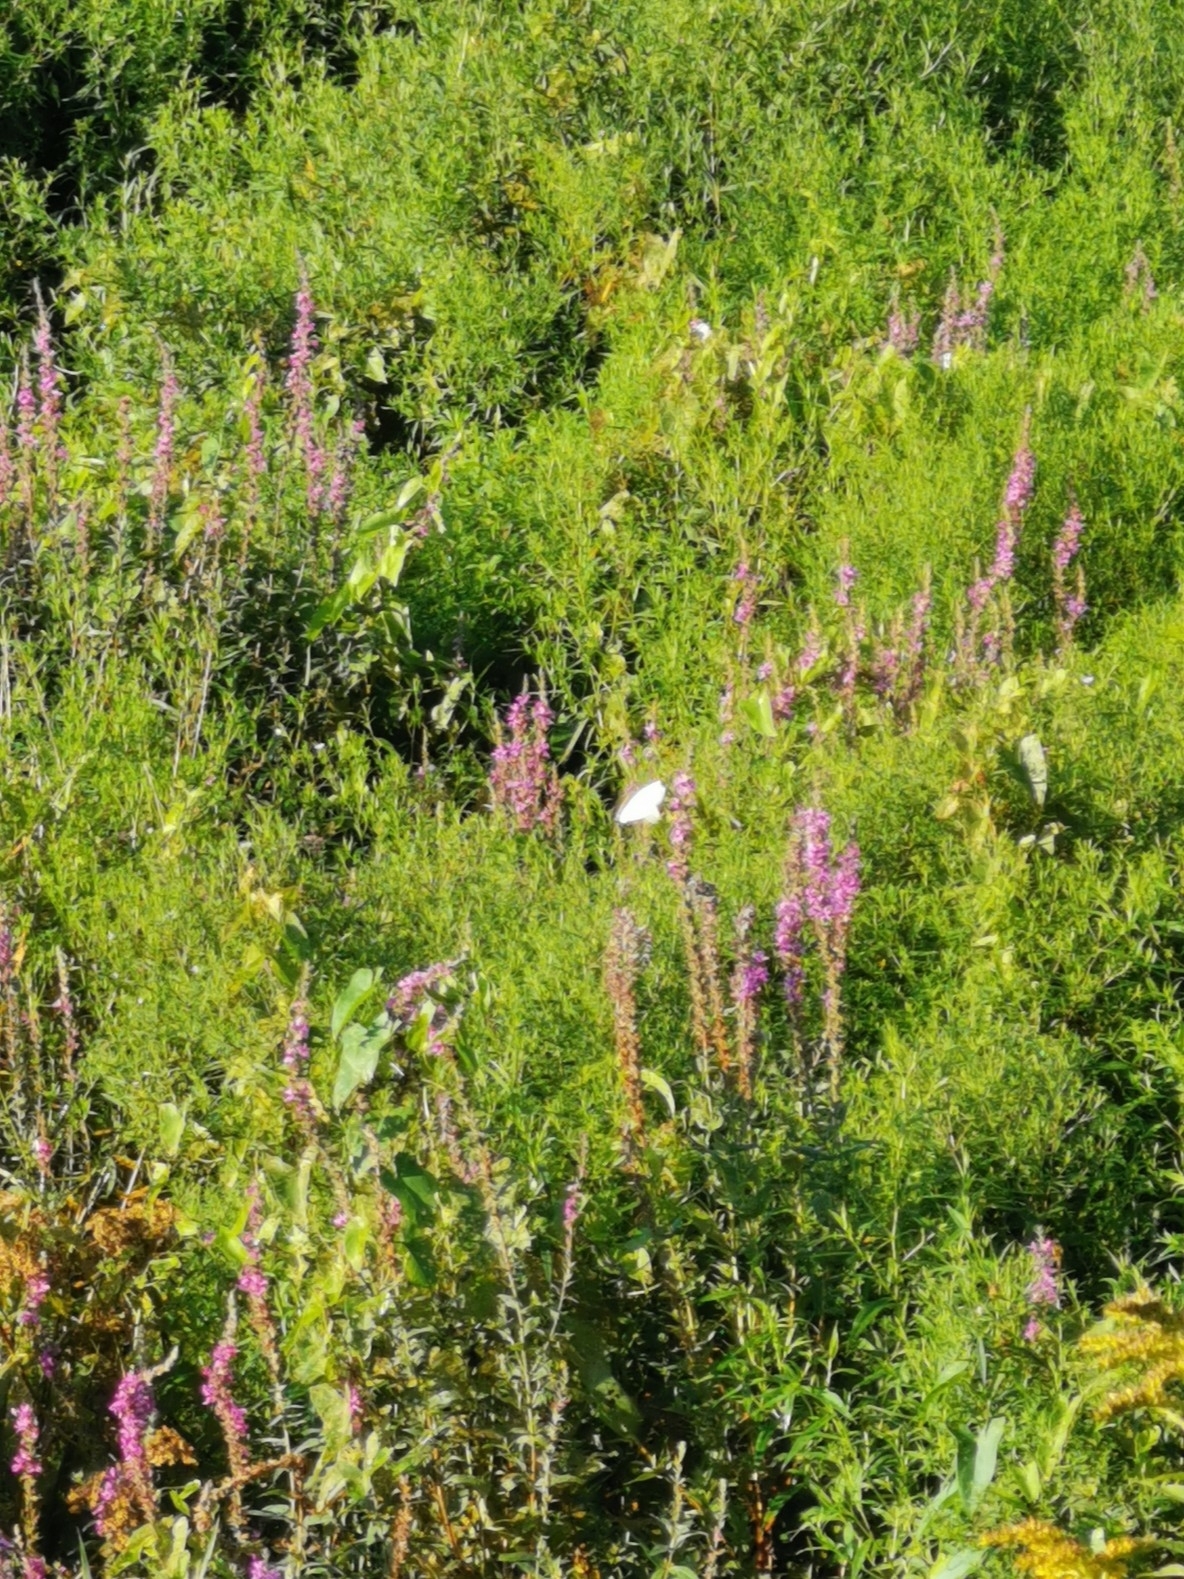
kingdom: Plantae
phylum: Tracheophyta
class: Magnoliopsida
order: Myrtales
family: Lythraceae
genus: Lythrum
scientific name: Lythrum salicaria
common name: Purple loosestrife
